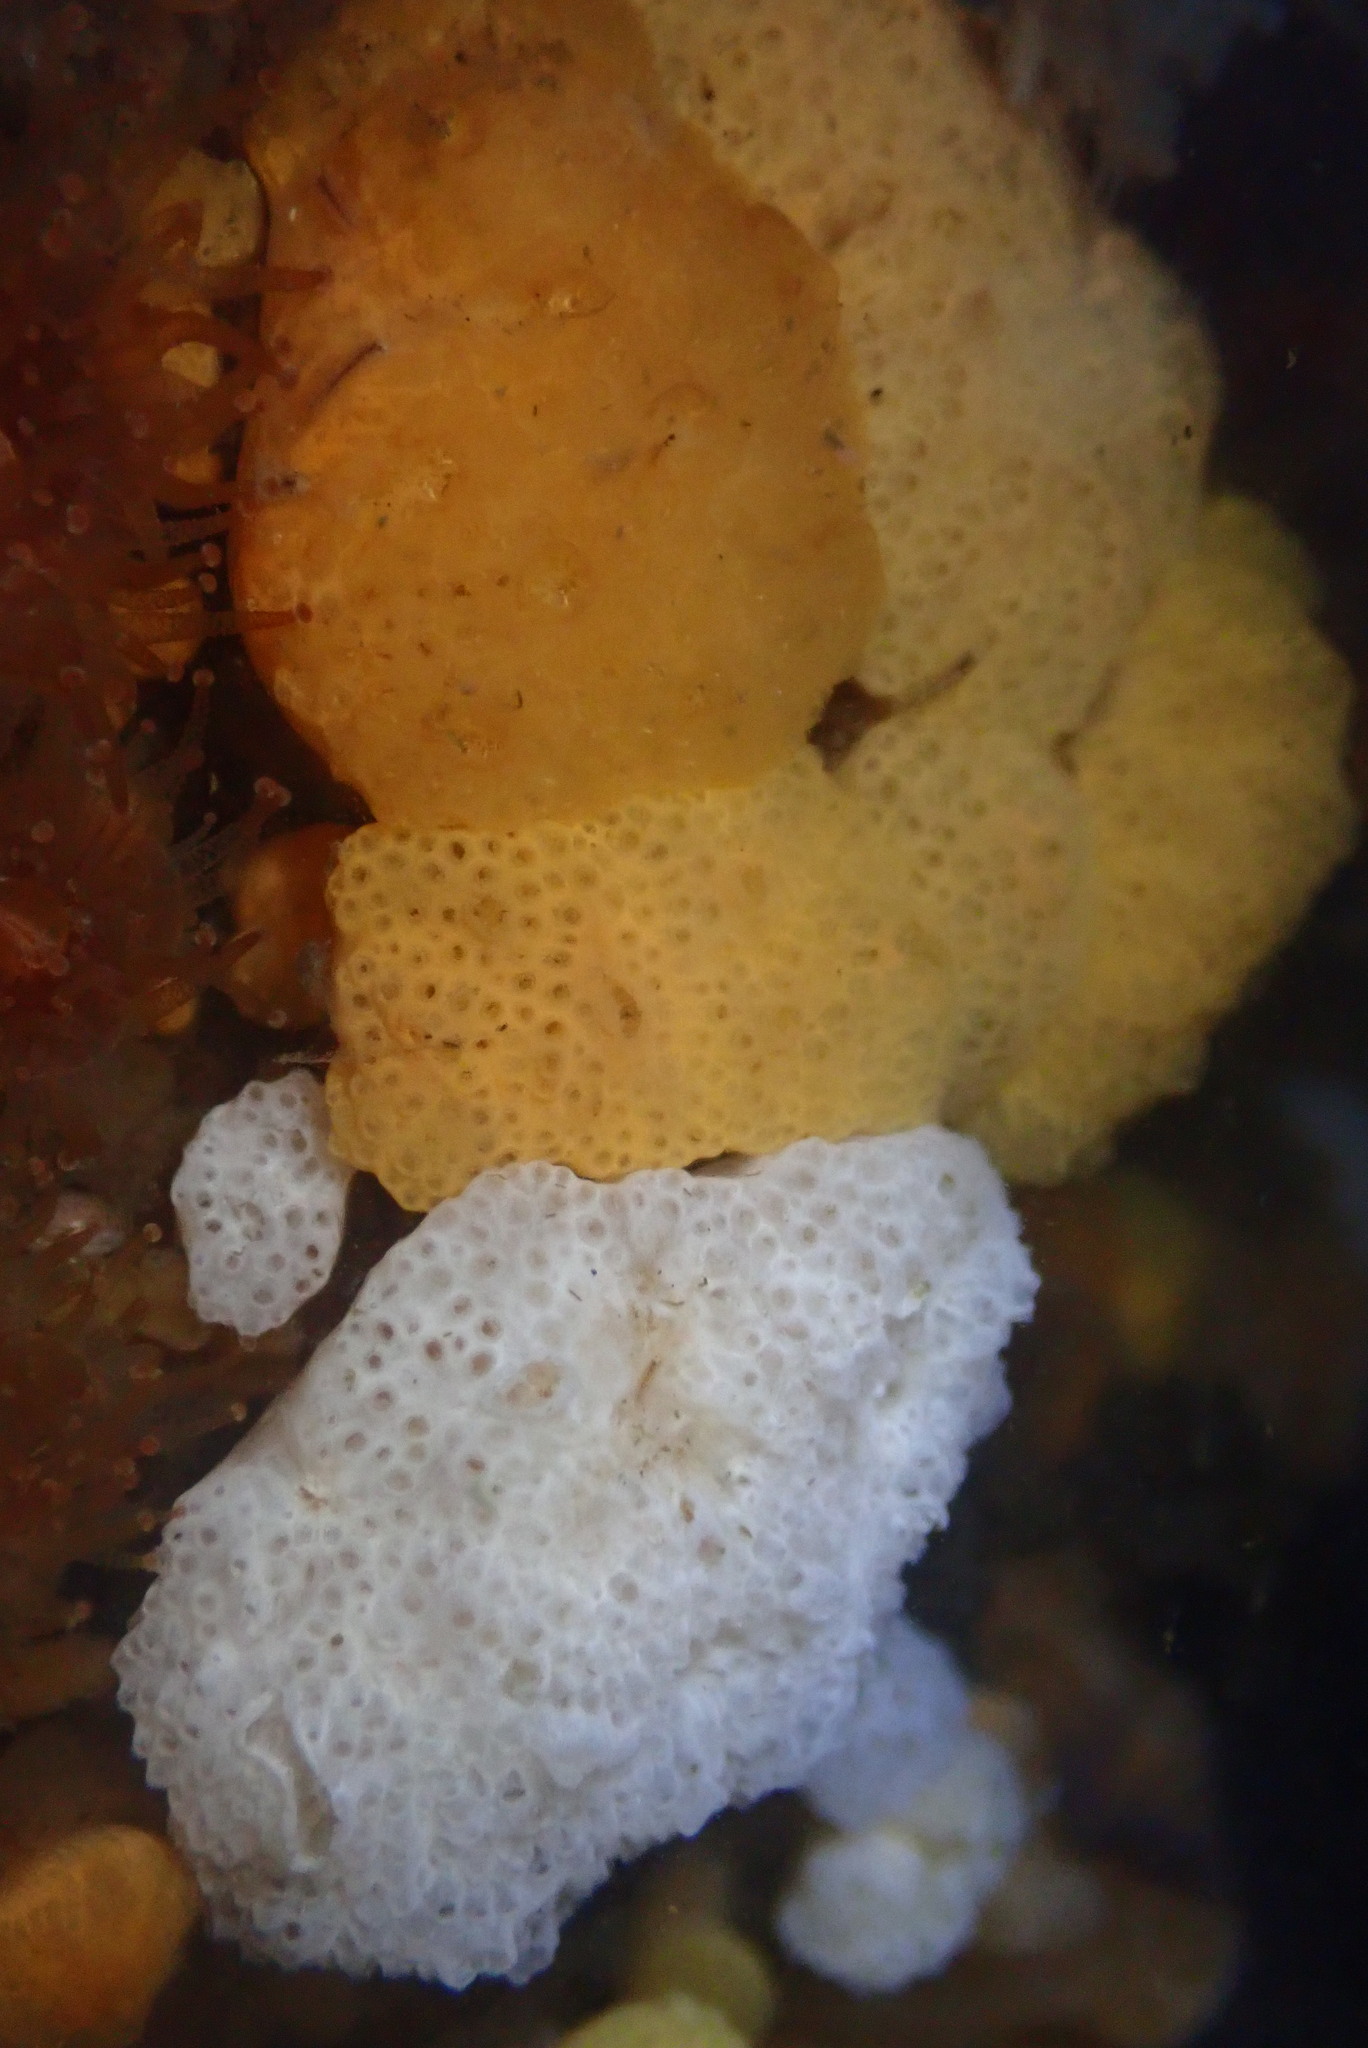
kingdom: Animalia
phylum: Chordata
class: Ascidiacea
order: Aplousobranchia
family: Holozoidae
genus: Distaplia
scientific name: Distaplia occidentalis
